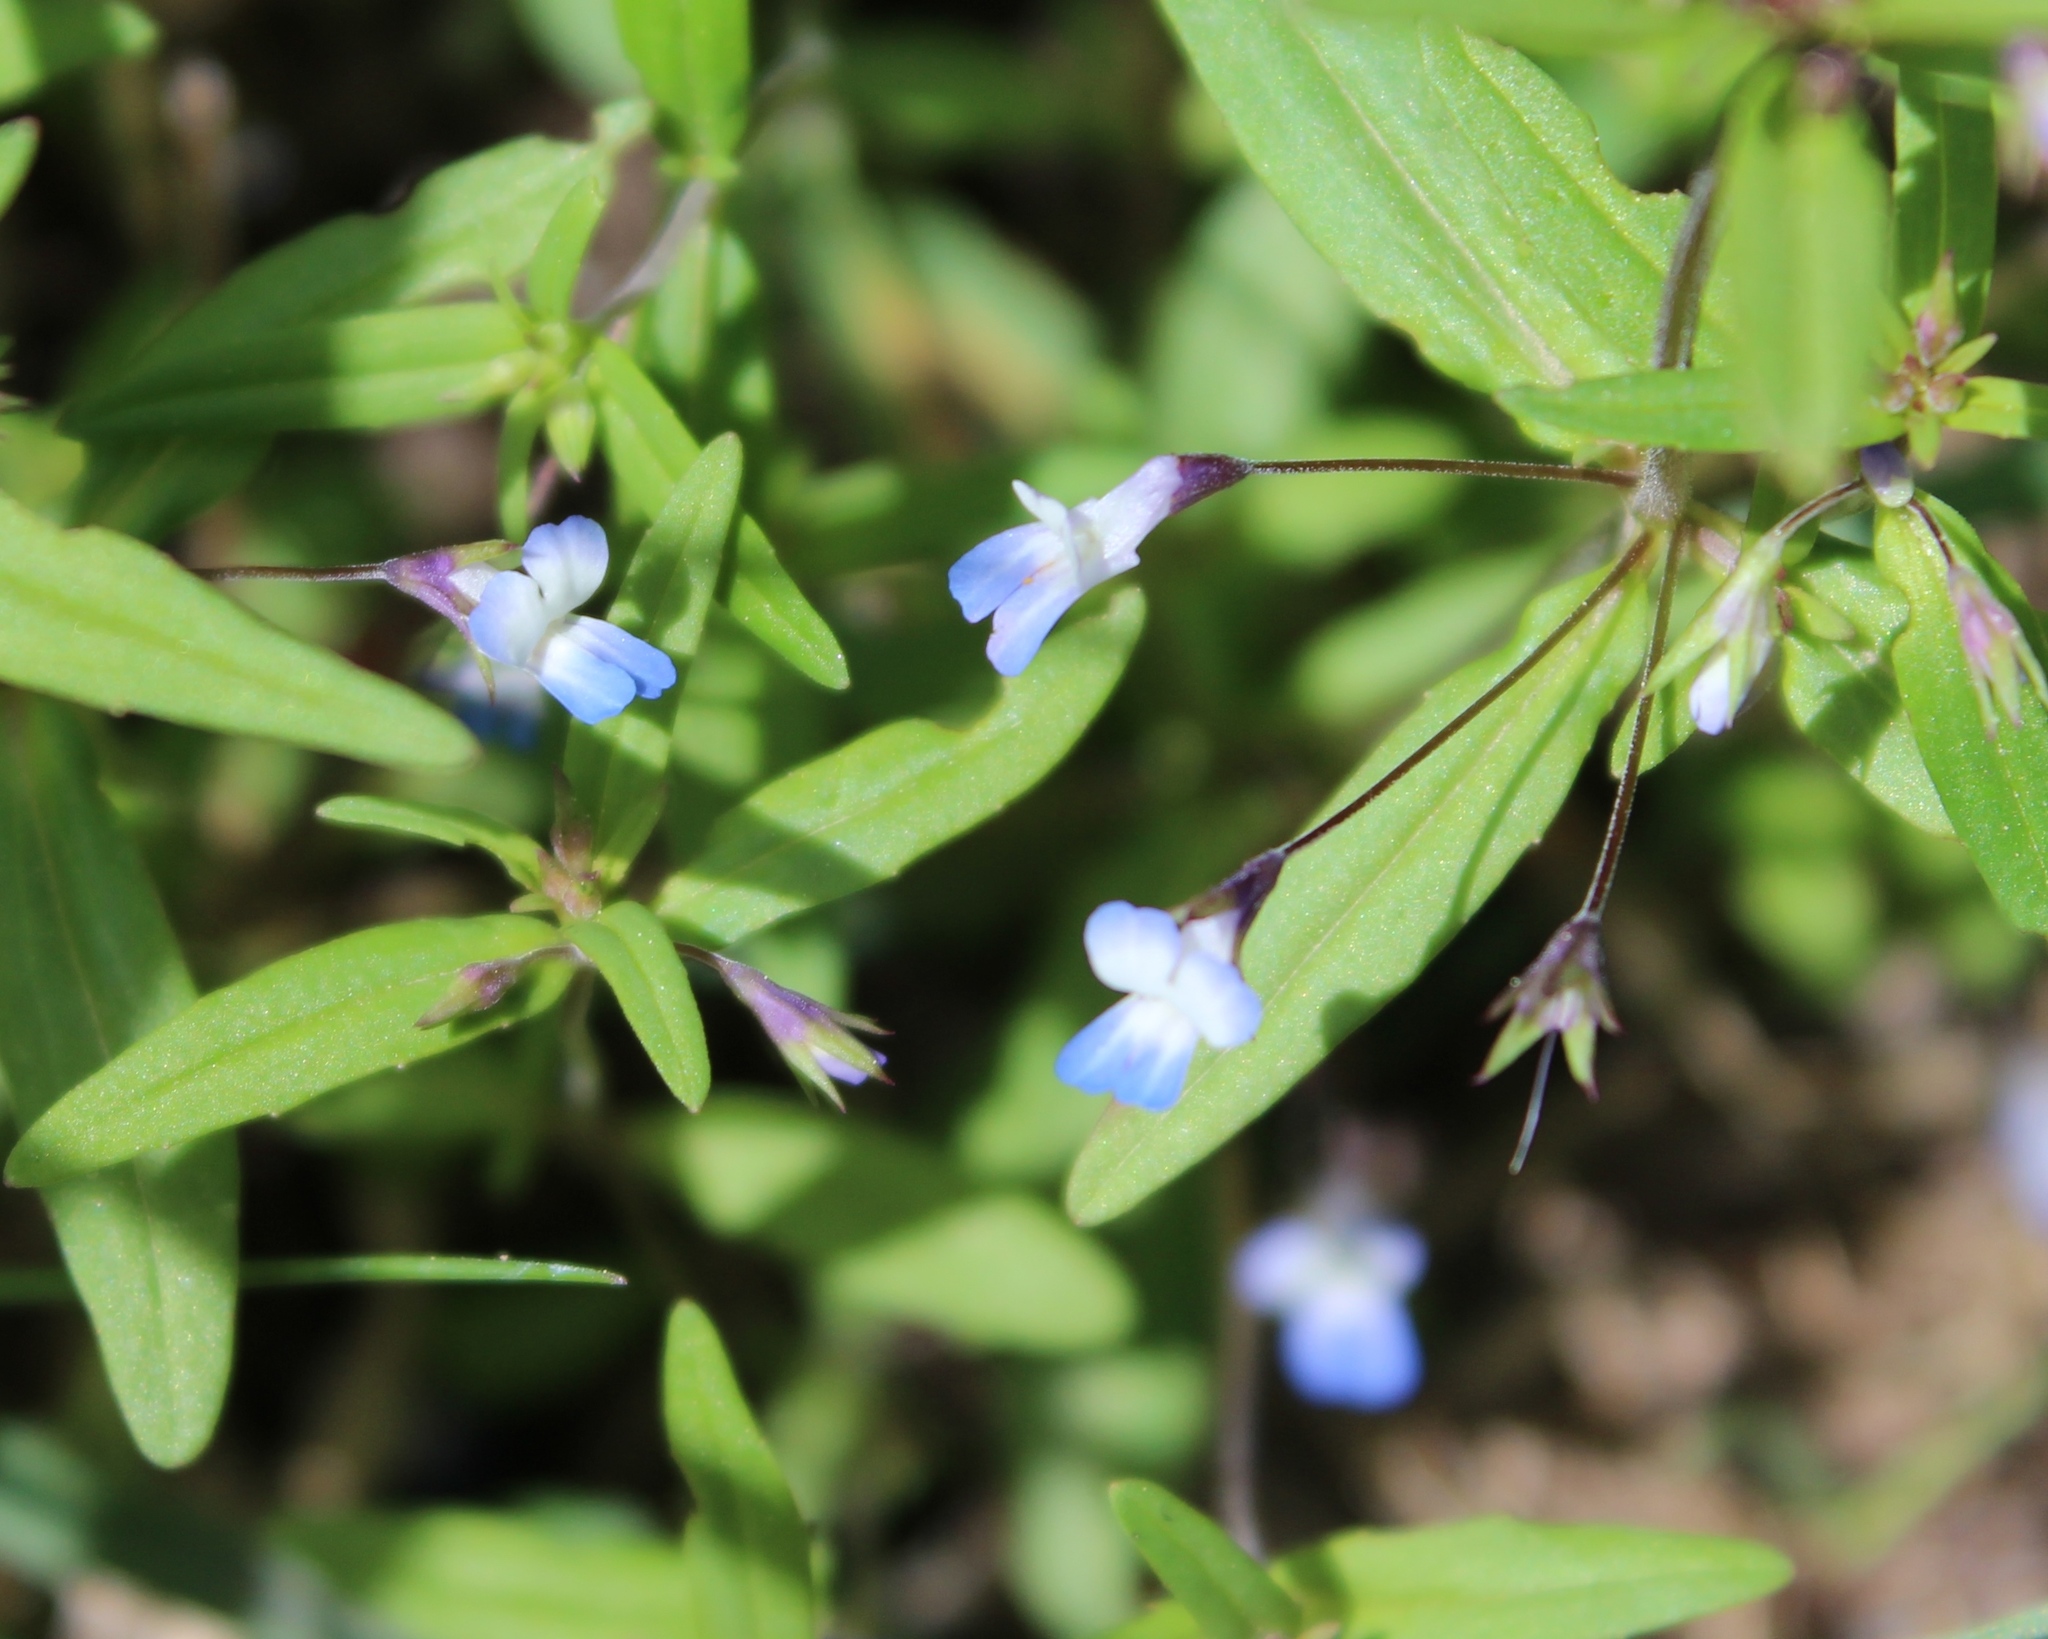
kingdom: Plantae
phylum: Tracheophyta
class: Magnoliopsida
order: Lamiales
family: Plantaginaceae
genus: Collinsia
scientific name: Collinsia parviflora
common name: Blue-lips
